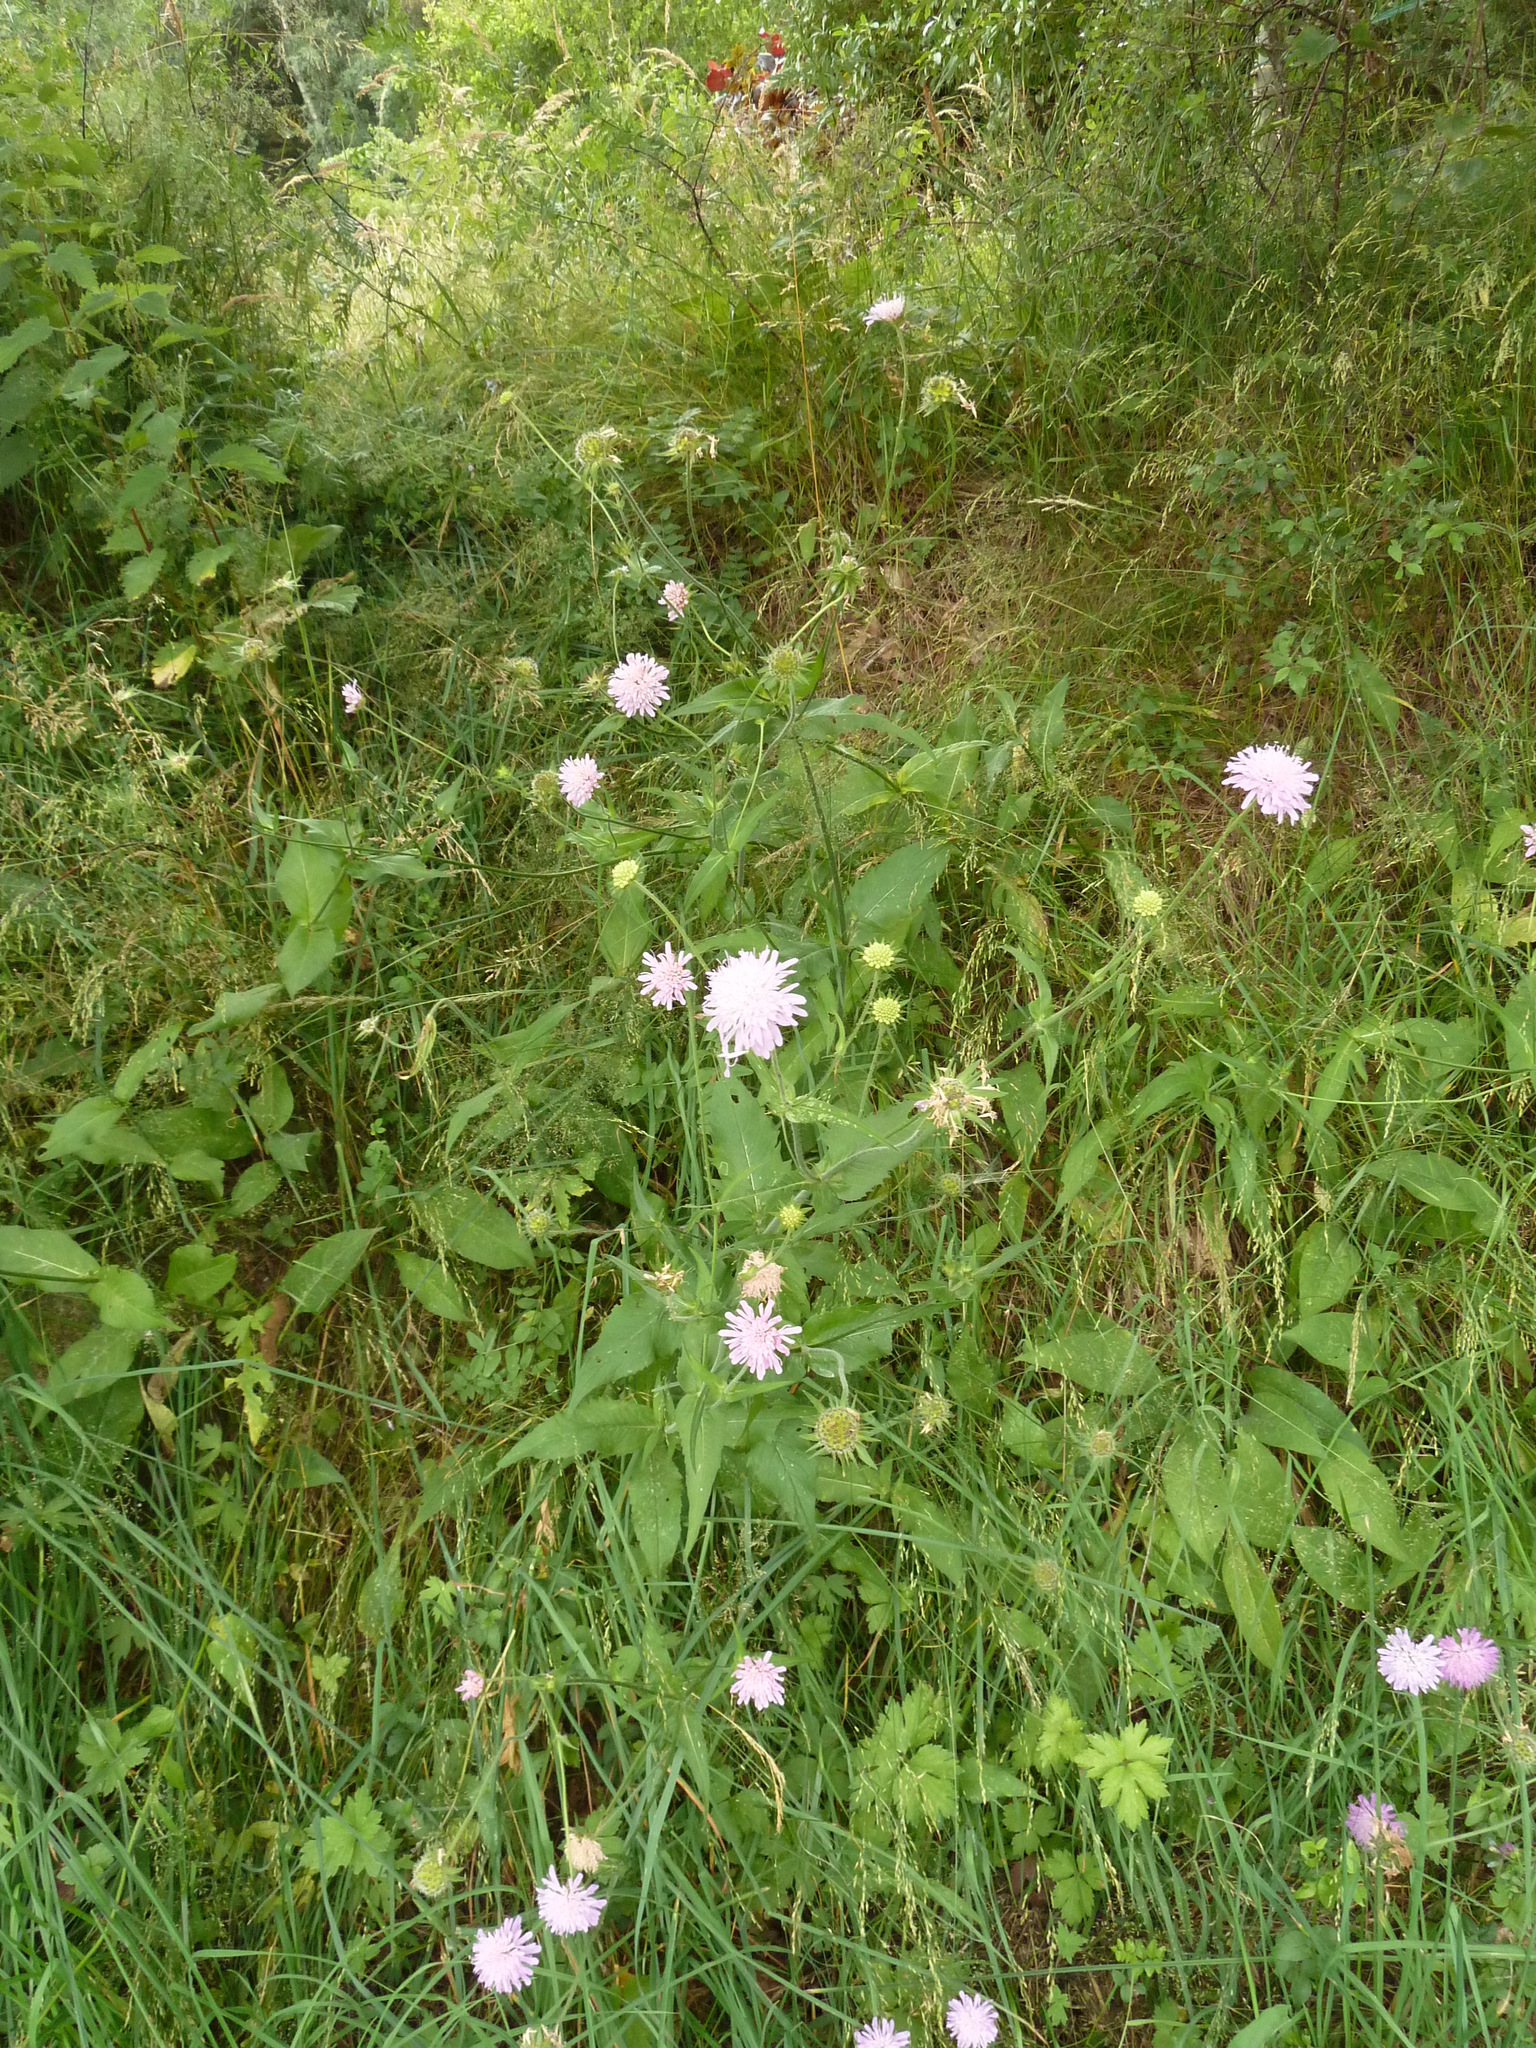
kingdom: Plantae
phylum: Tracheophyta
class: Magnoliopsida
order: Dipsacales
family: Caprifoliaceae
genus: Knautia
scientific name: Knautia dipsacifolia
